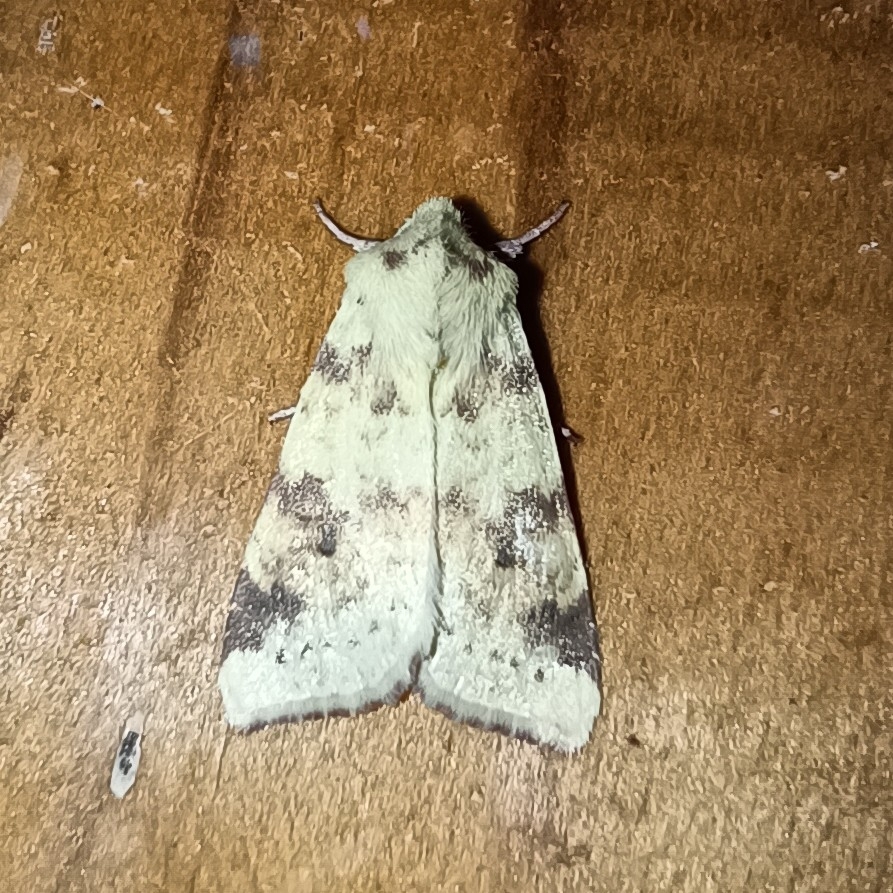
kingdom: Animalia
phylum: Arthropoda
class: Insecta
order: Lepidoptera
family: Noctuidae
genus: Xanthia
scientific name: Xanthia icteritia
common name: The sallow
